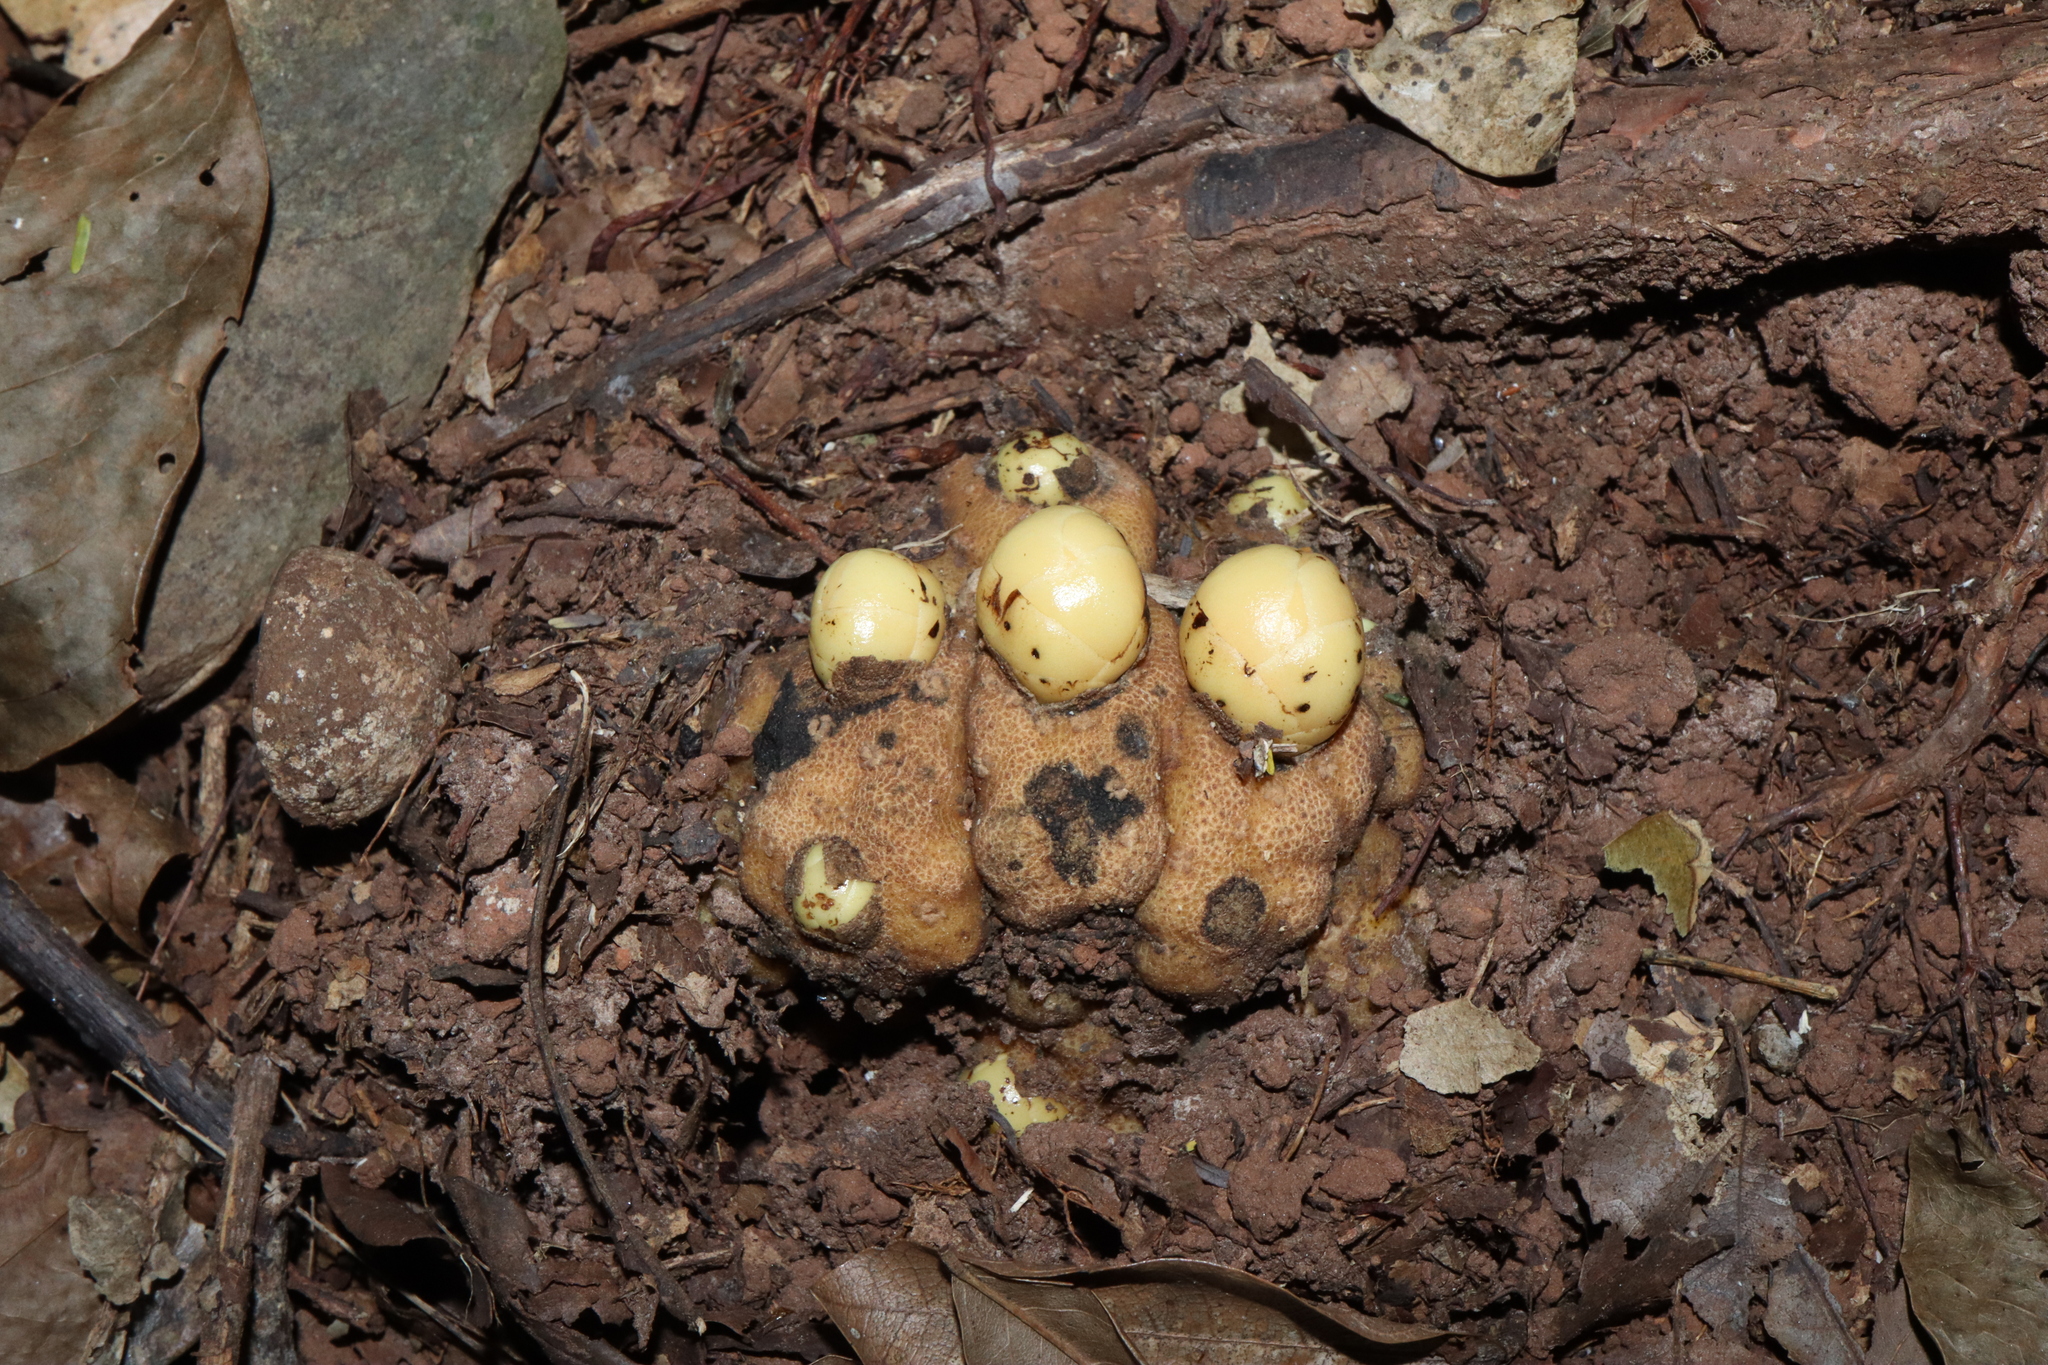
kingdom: Plantae
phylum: Tracheophyta
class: Magnoliopsida
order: Santalales
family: Balanophoraceae
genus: Balanophora
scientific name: Balanophora fungosa
